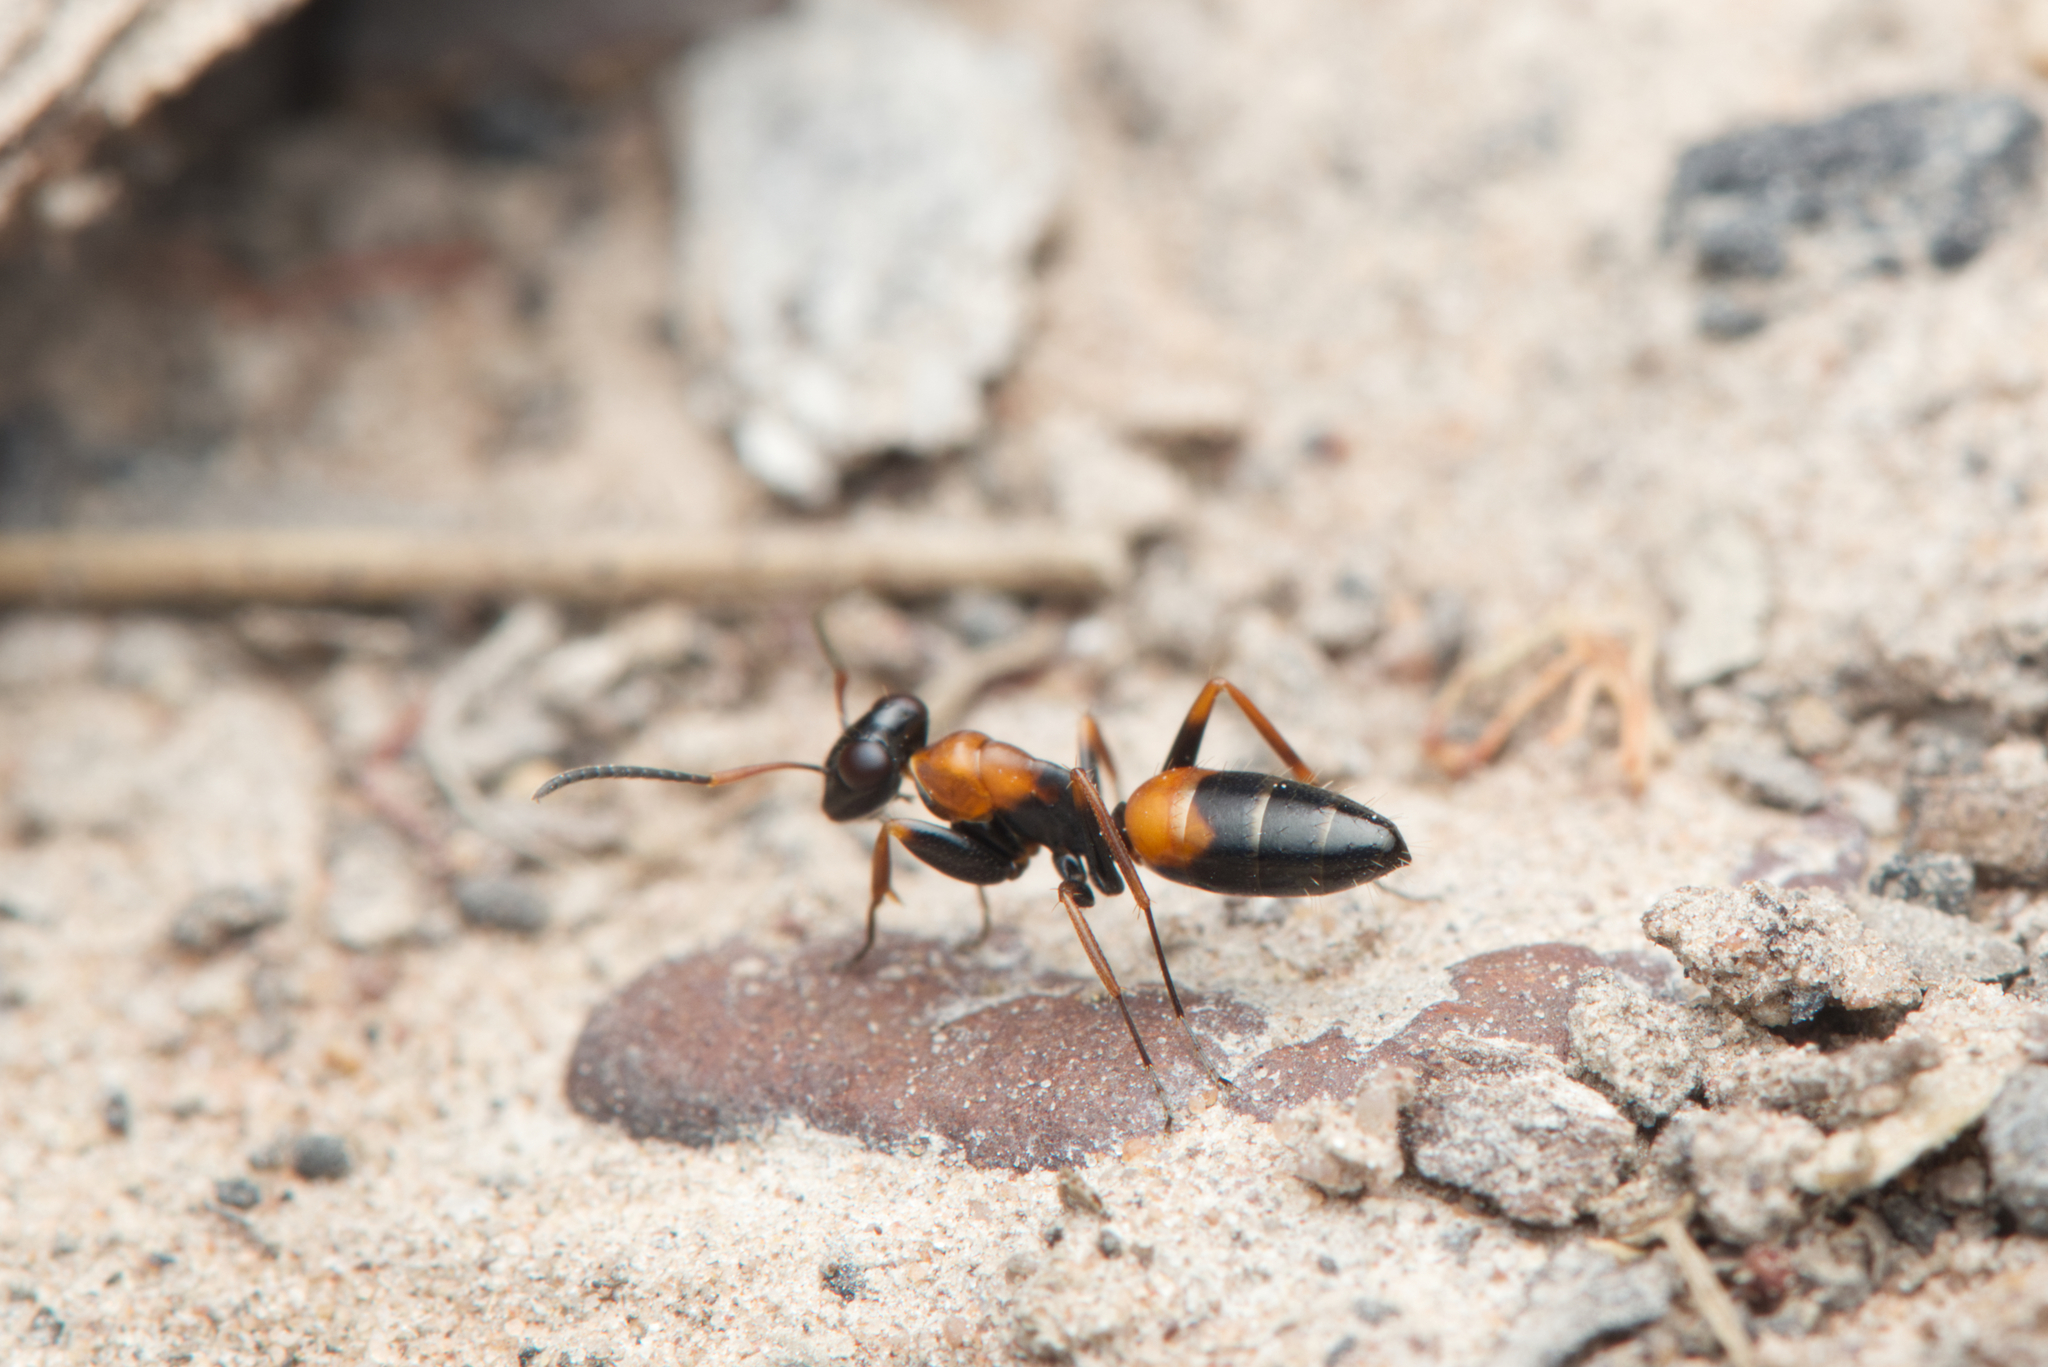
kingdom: Animalia
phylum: Arthropoda
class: Insecta
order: Hymenoptera
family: Formicidae
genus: Opisthopsis
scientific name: Opisthopsis pictus
